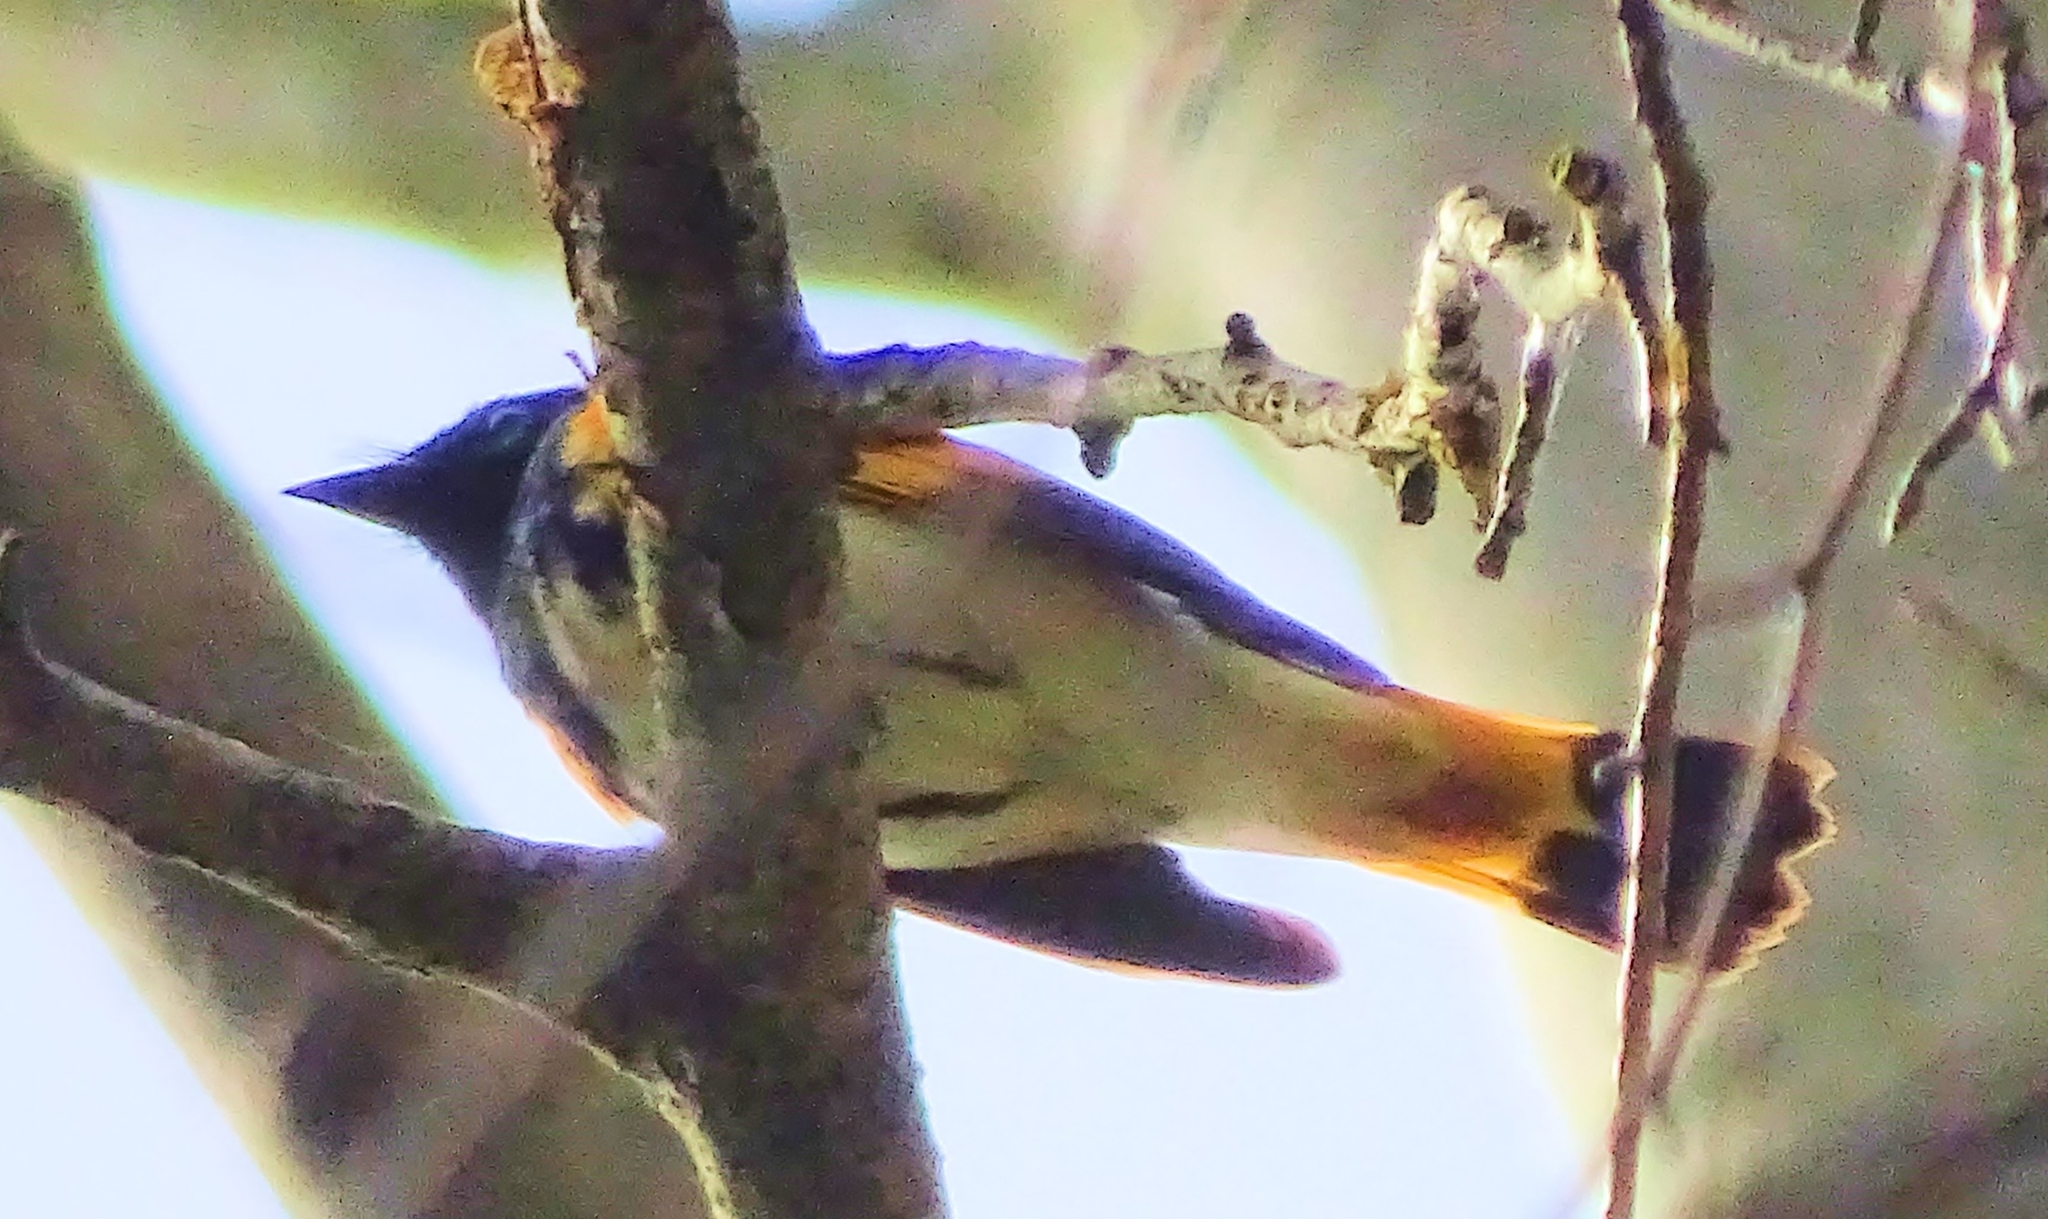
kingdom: Animalia
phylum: Chordata
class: Aves
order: Passeriformes
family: Parulidae
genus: Setophaga
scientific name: Setophaga ruticilla
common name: American redstart
